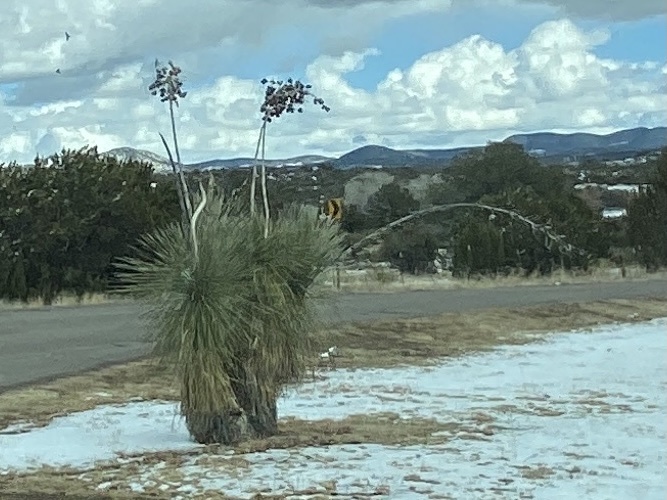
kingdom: Plantae
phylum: Tracheophyta
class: Liliopsida
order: Asparagales
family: Asparagaceae
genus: Yucca
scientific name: Yucca elata
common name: Palmella
